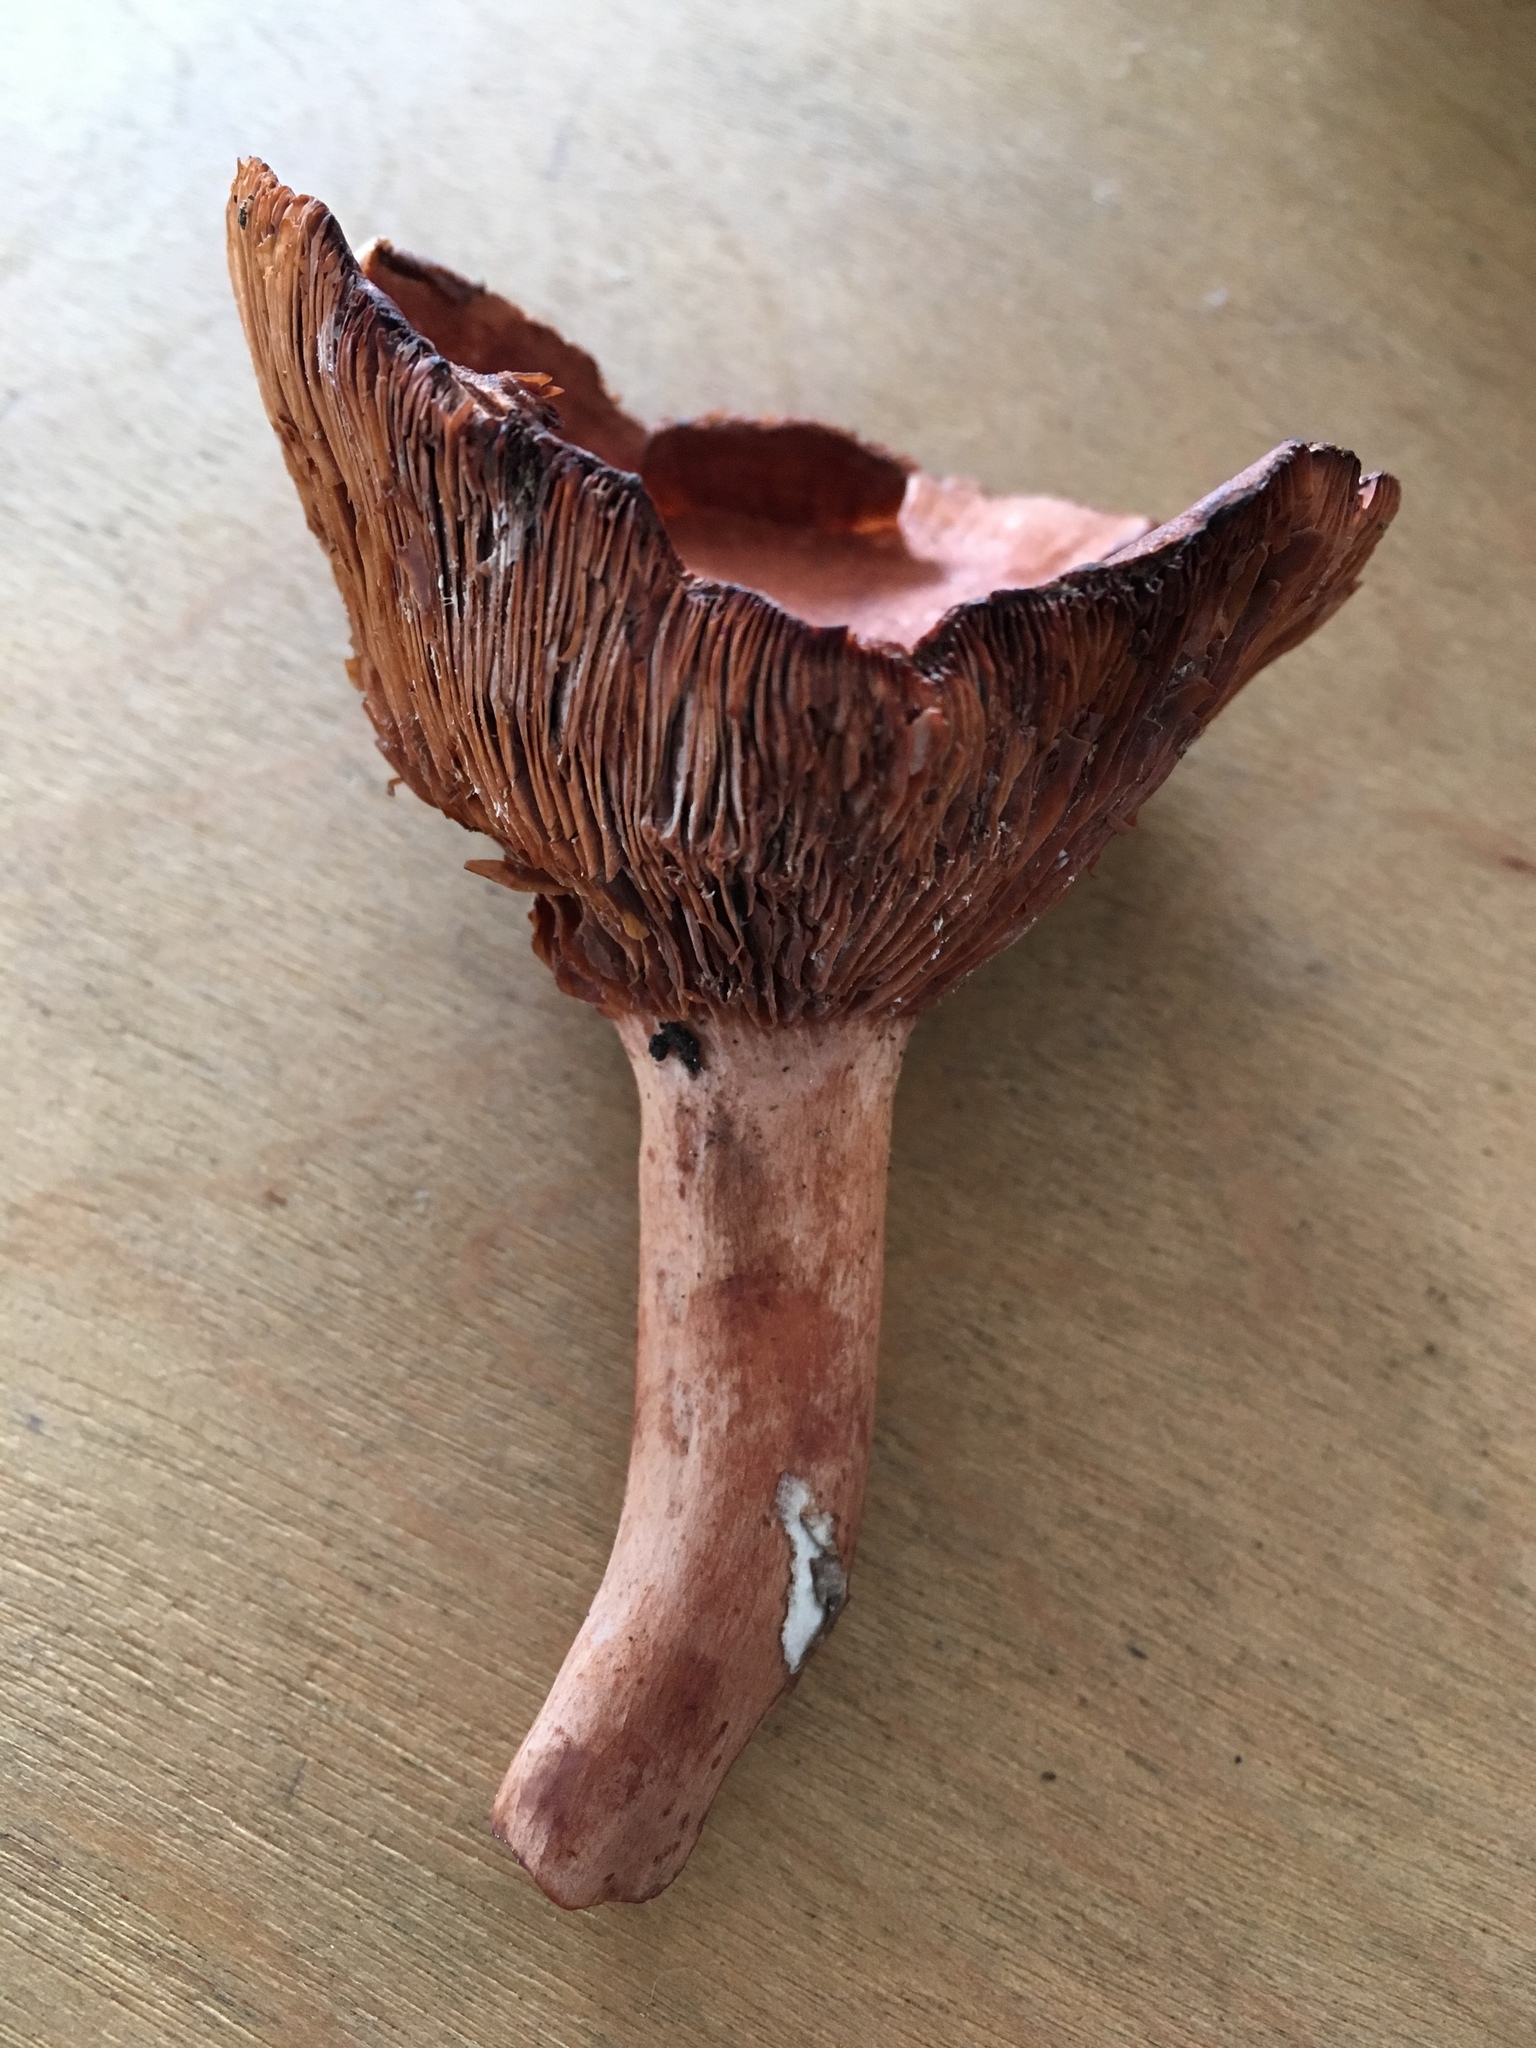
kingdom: Fungi
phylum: Basidiomycota
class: Agaricomycetes
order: Russulales
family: Russulaceae
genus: Lactarius
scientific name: Lactarius rufus
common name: Rufous milk-cap
